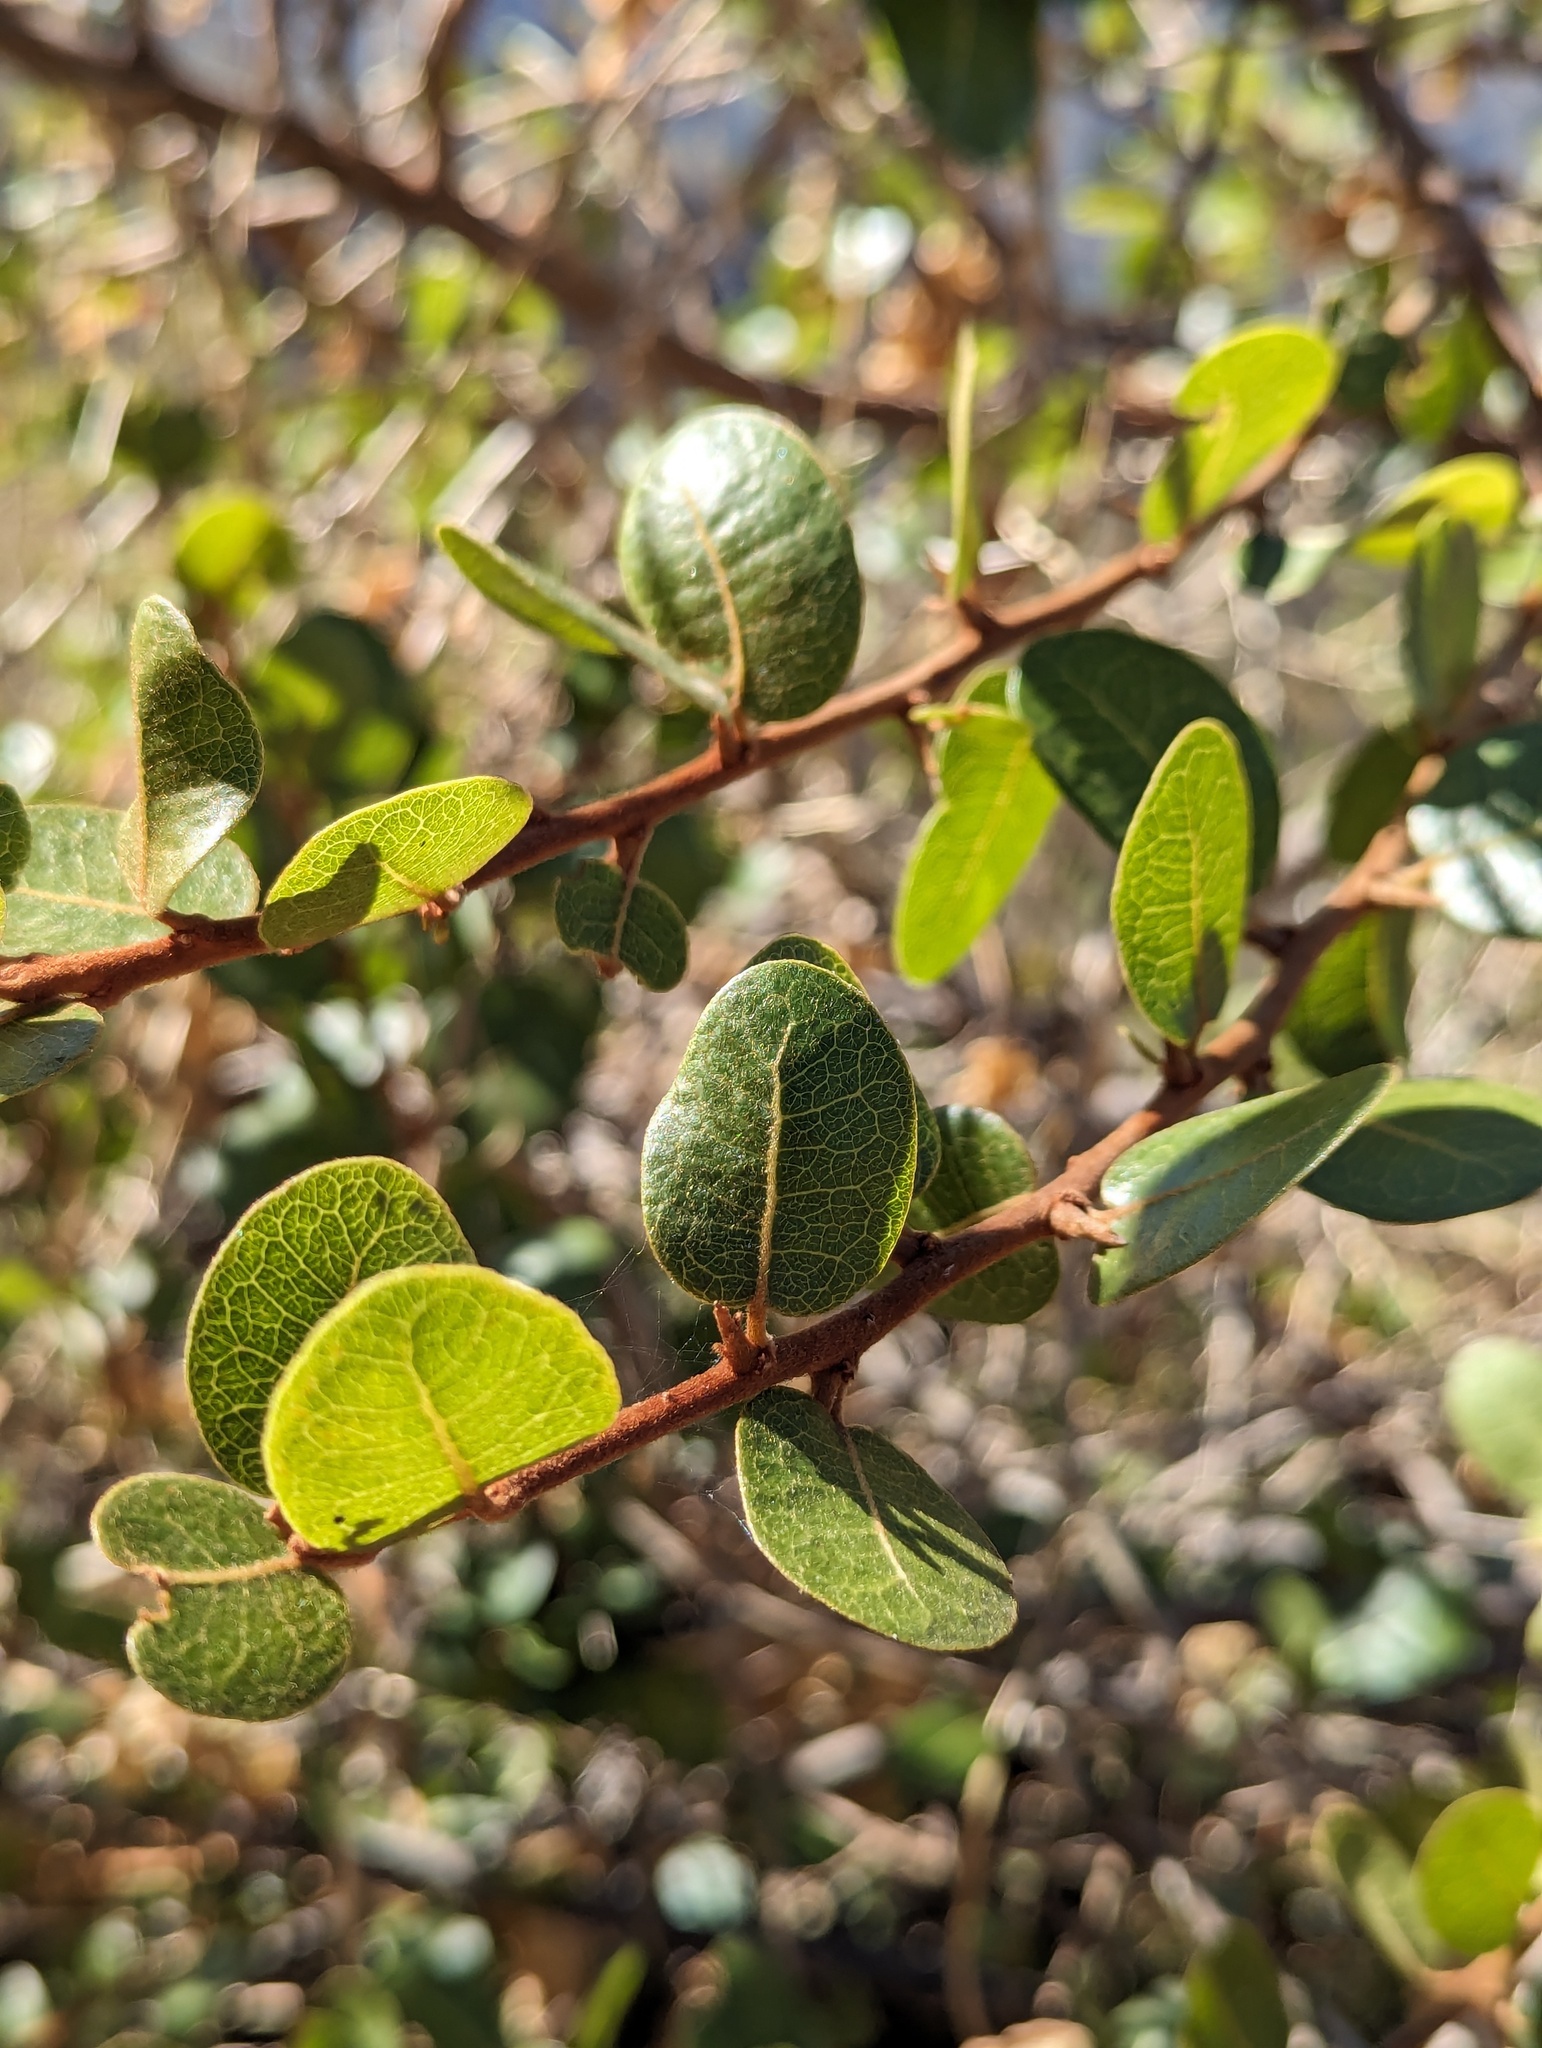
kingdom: Plantae
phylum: Tracheophyta
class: Magnoliopsida
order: Ericales
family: Sapotaceae
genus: Sideroxylon
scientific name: Sideroxylon peninsulare
